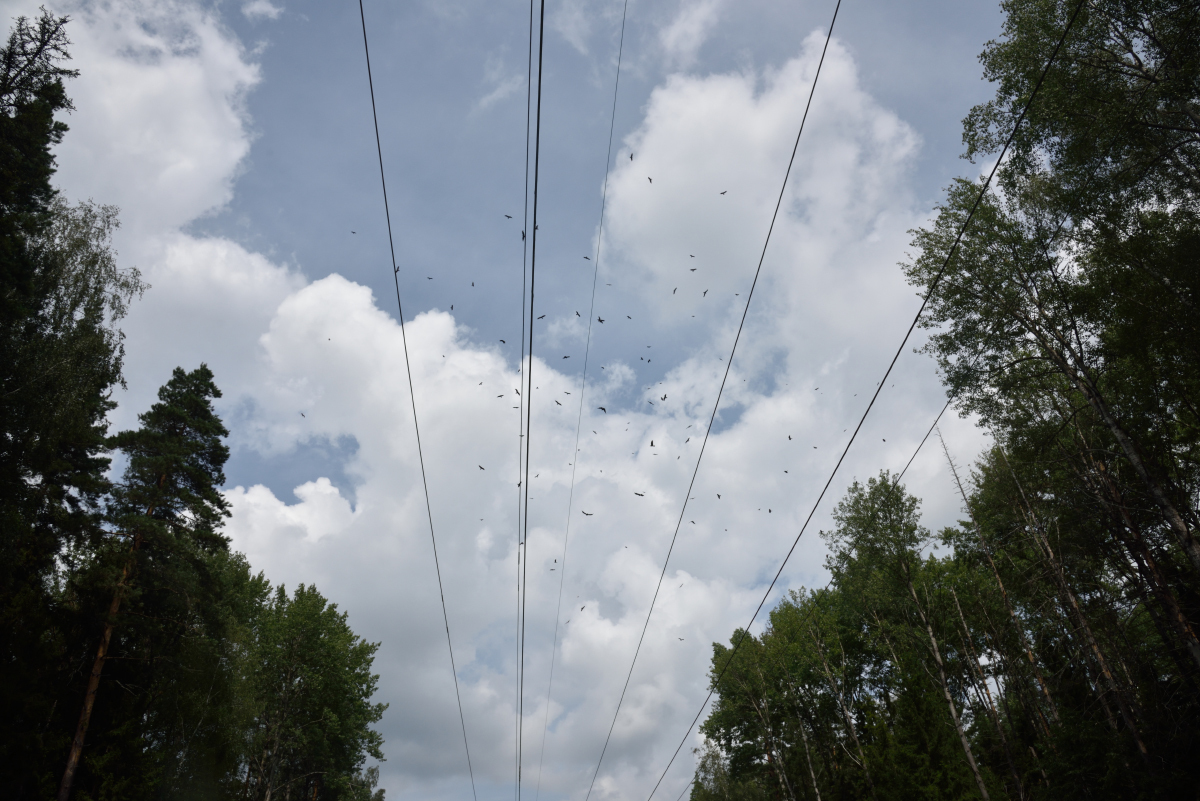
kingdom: Animalia
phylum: Chordata
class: Aves
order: Accipitriformes
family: Accipitridae
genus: Milvus
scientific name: Milvus migrans
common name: Black kite
